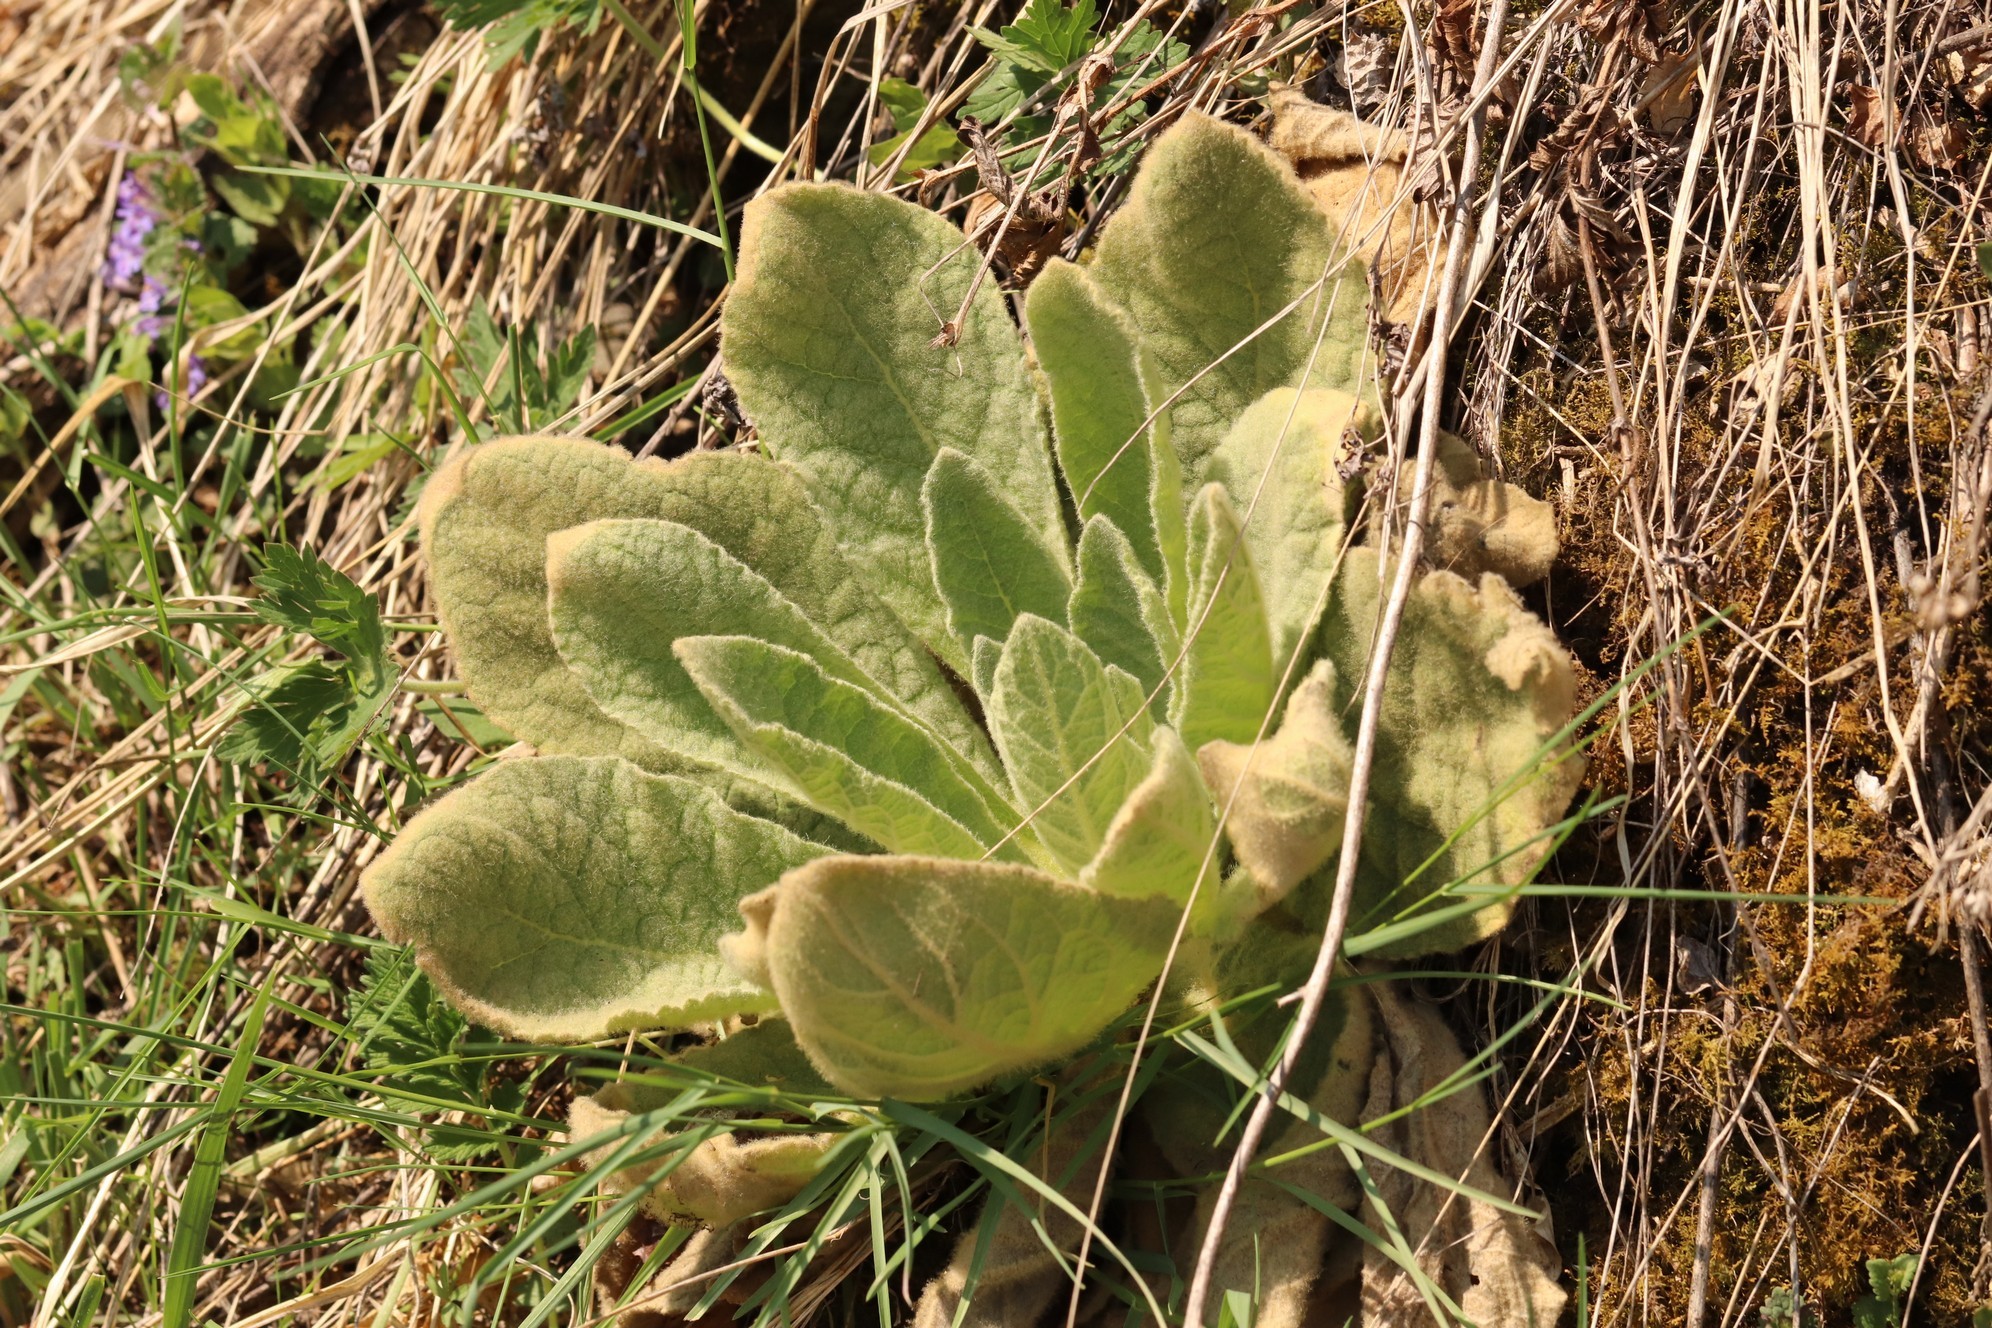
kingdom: Plantae
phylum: Tracheophyta
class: Magnoliopsida
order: Lamiales
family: Scrophulariaceae
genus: Verbascum
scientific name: Verbascum thapsus
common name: Common mullein
